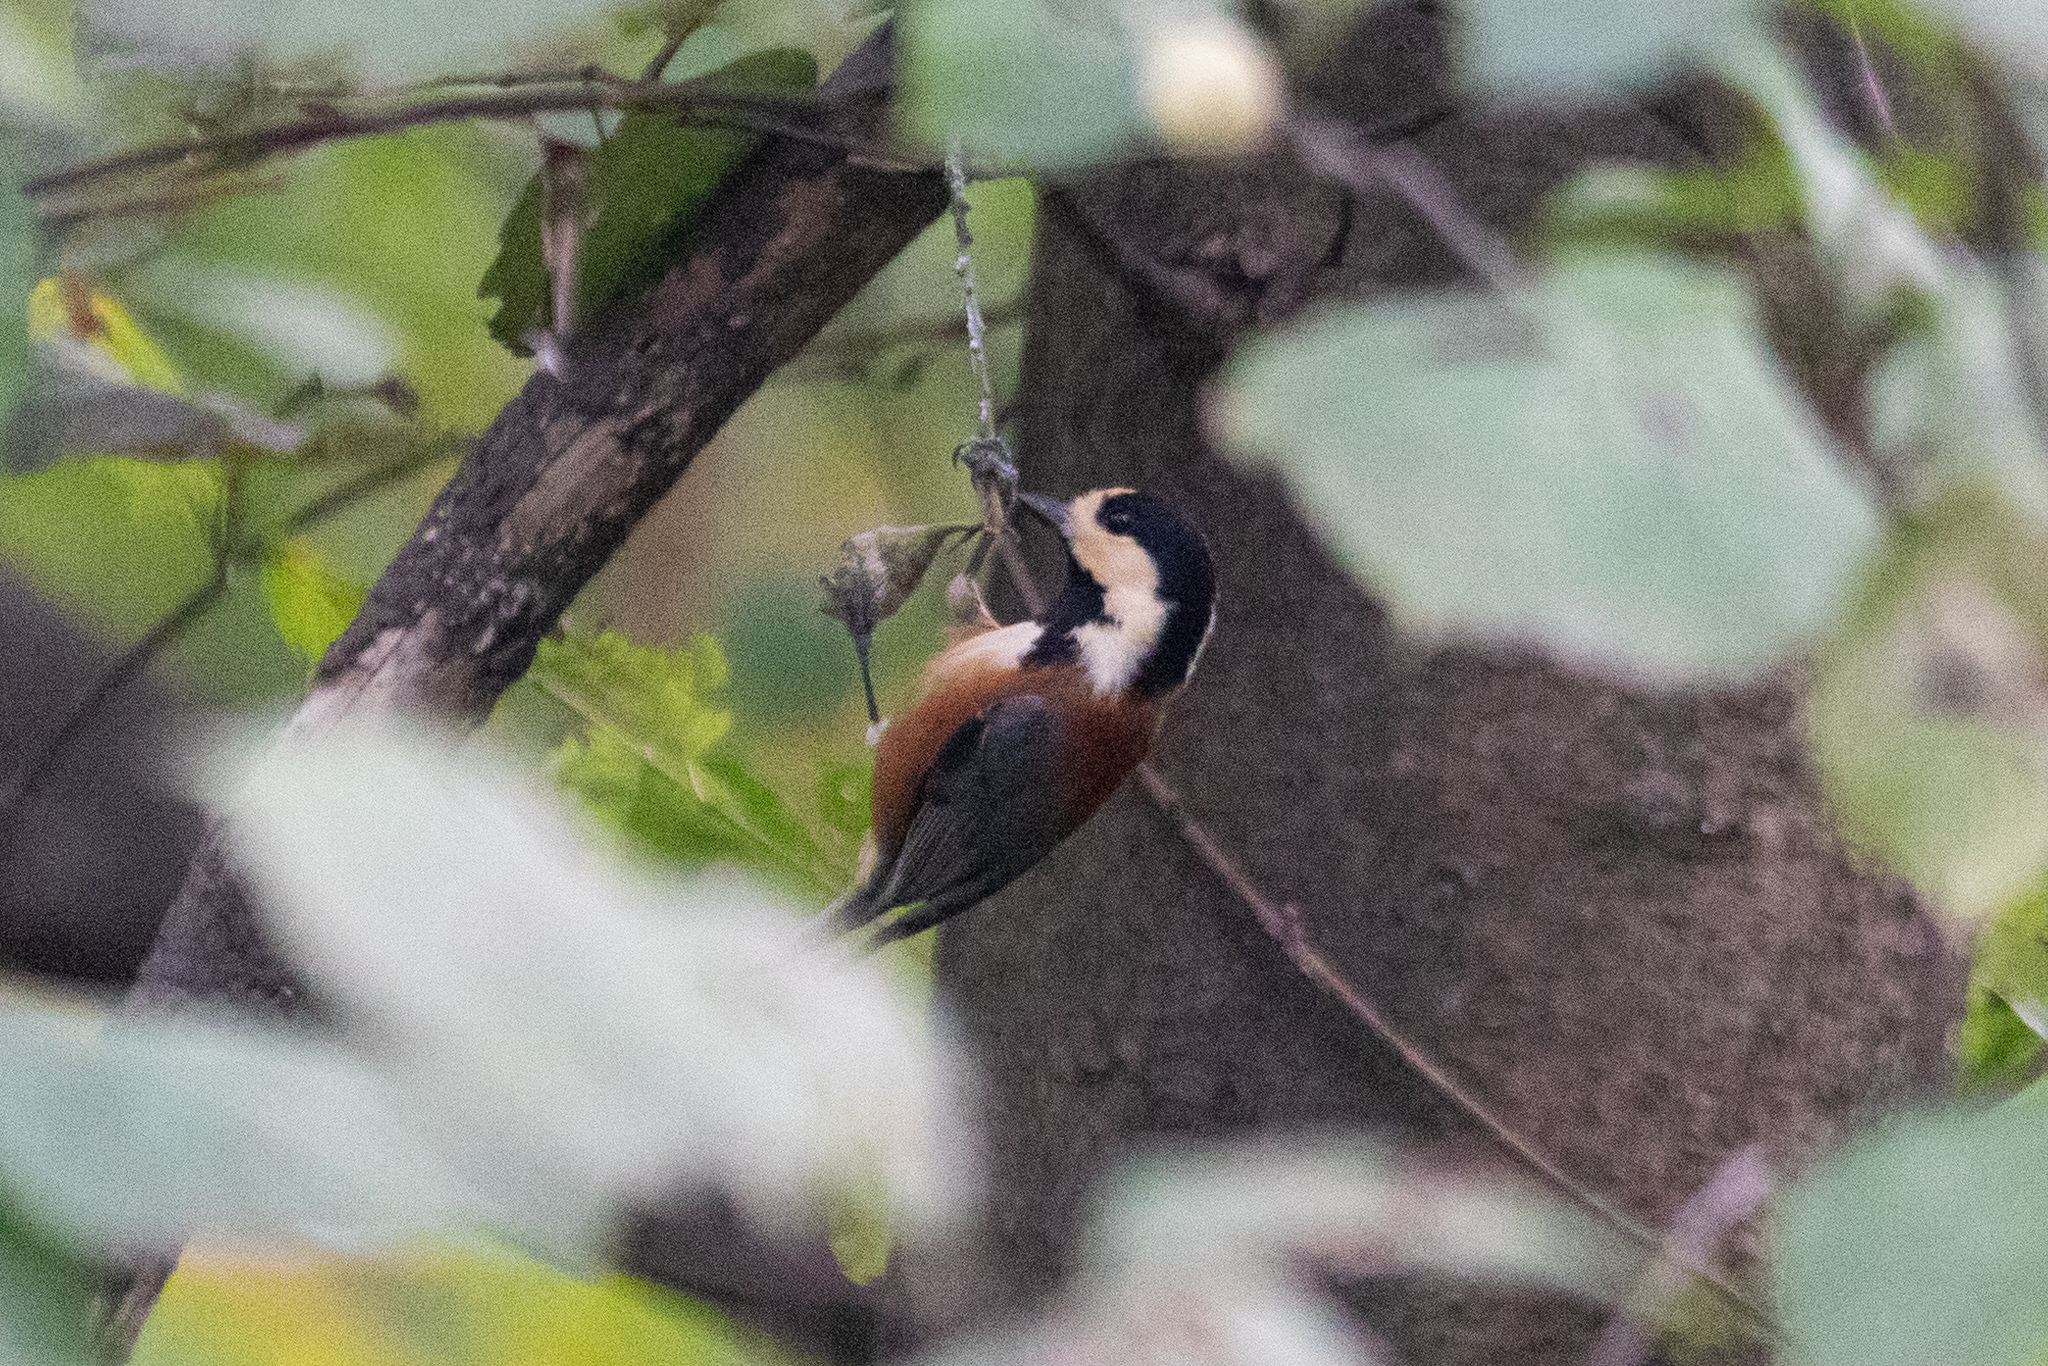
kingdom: Animalia
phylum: Chordata
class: Aves
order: Passeriformes
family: Paridae
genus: Poecile
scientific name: Poecile varius
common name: Varied tit
